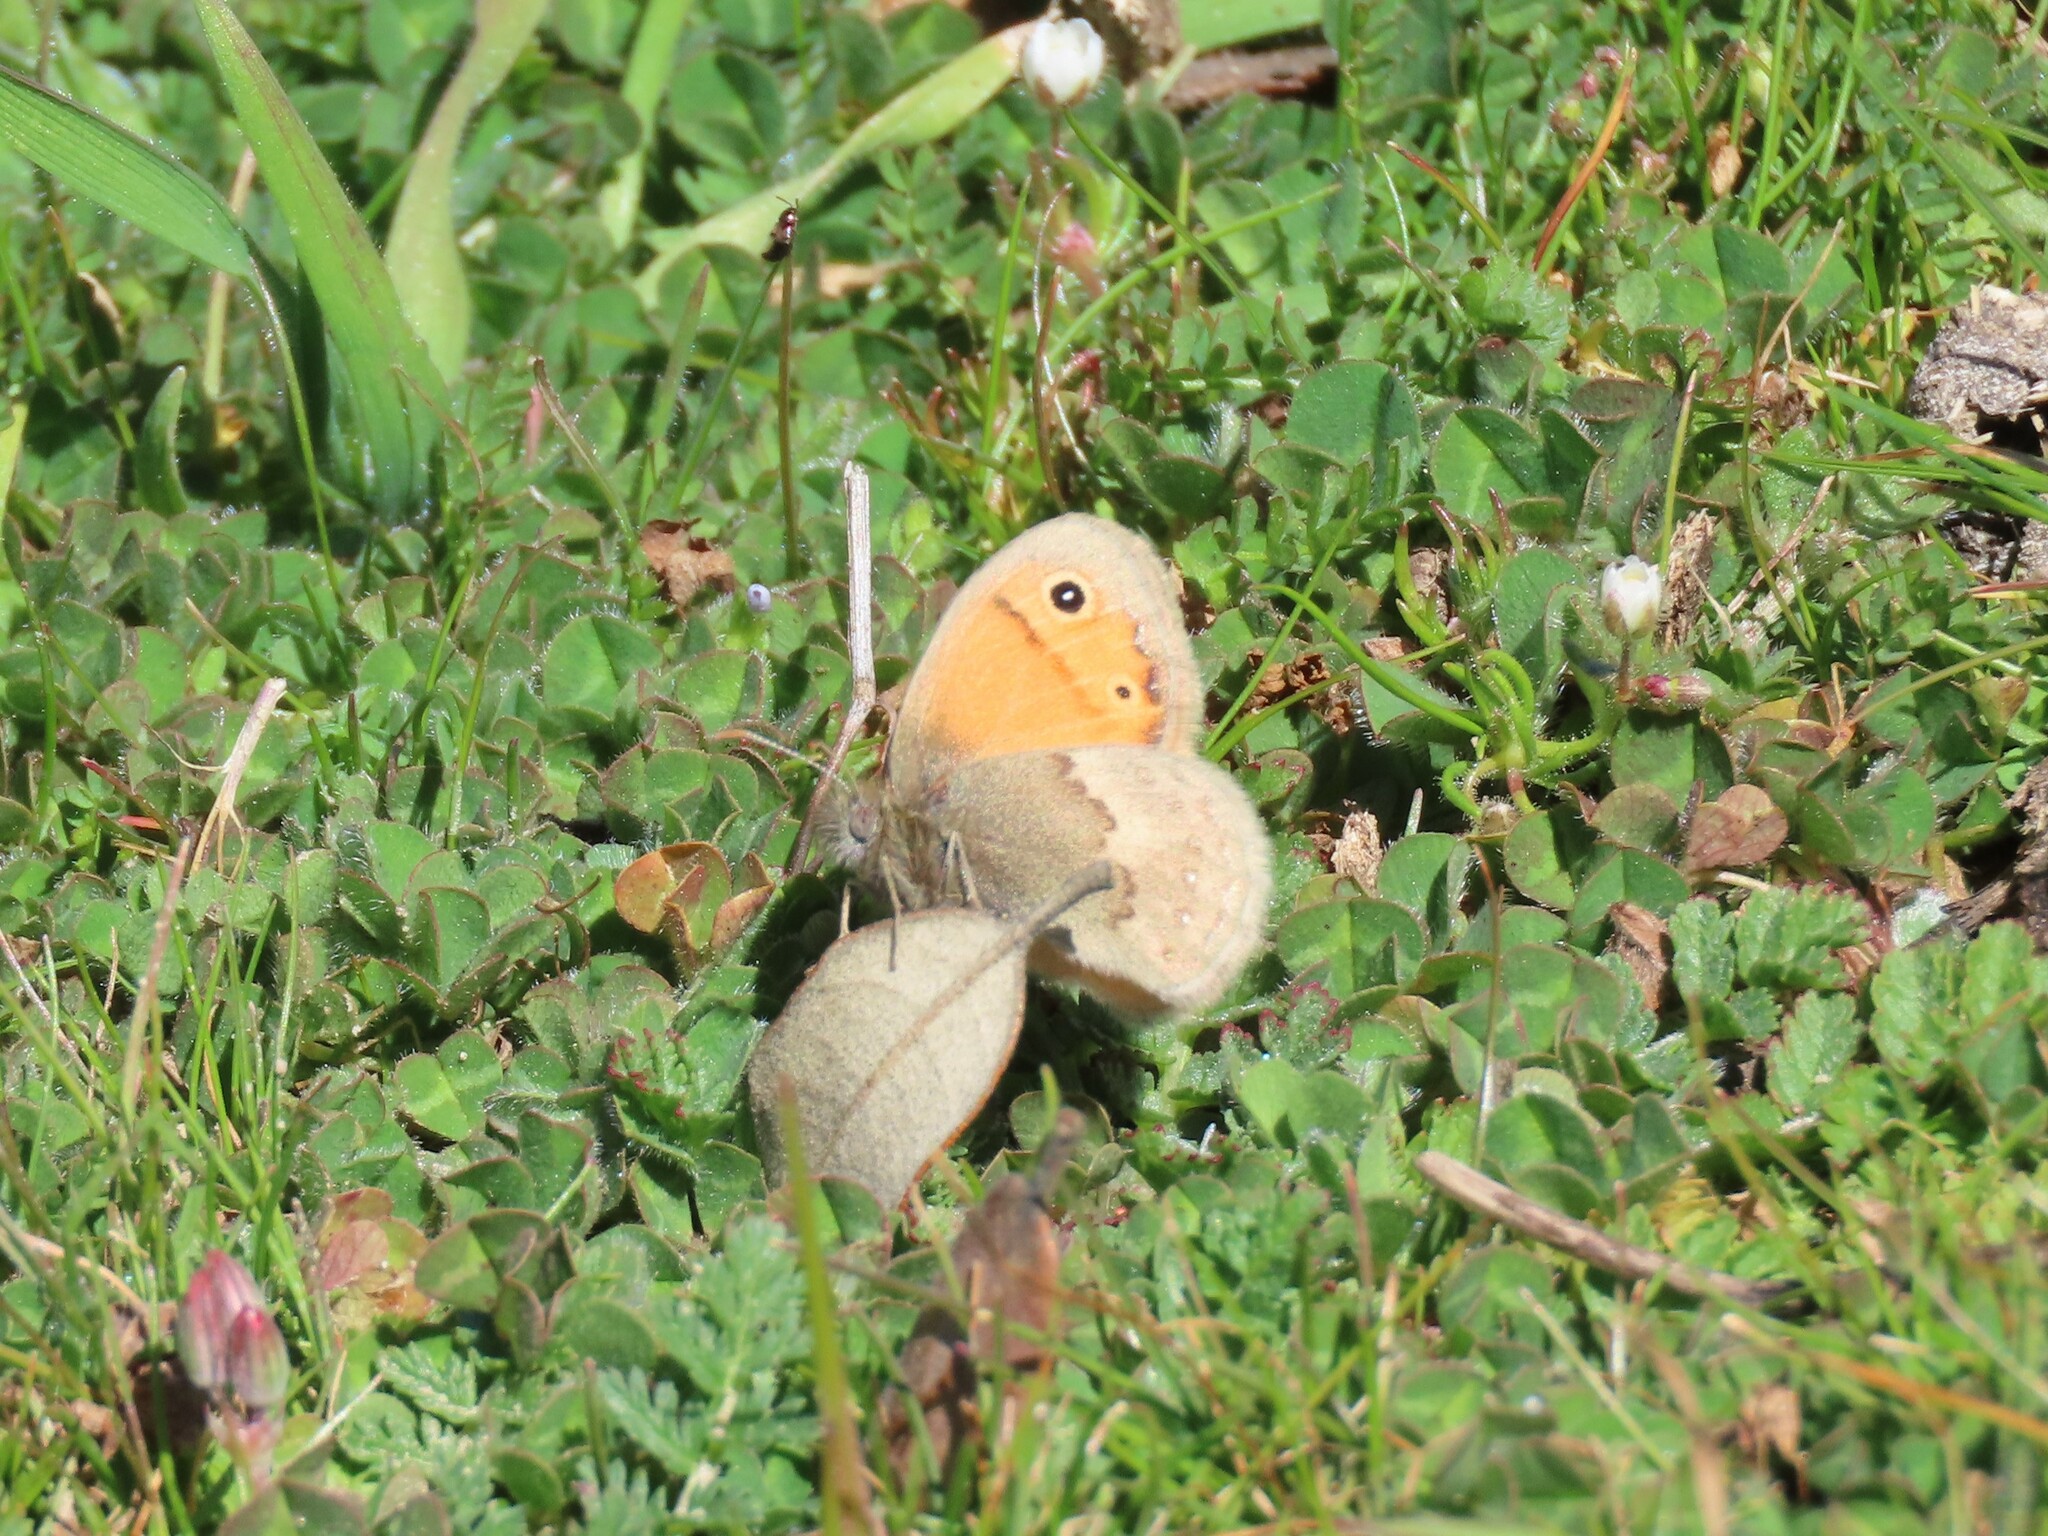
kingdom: Animalia
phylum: Arthropoda
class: Insecta
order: Lepidoptera
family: Nymphalidae
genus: Coenonympha
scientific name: Coenonympha pamphilus
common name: Small heath
